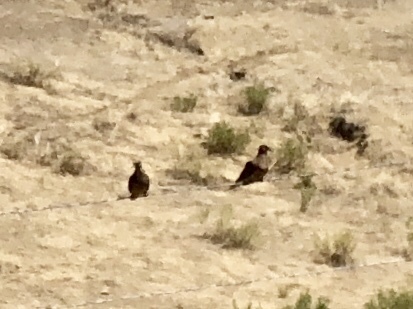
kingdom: Animalia
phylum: Chordata
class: Aves
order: Columbiformes
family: Columbidae
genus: Zenaida
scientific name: Zenaida macroura
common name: Mourning dove
